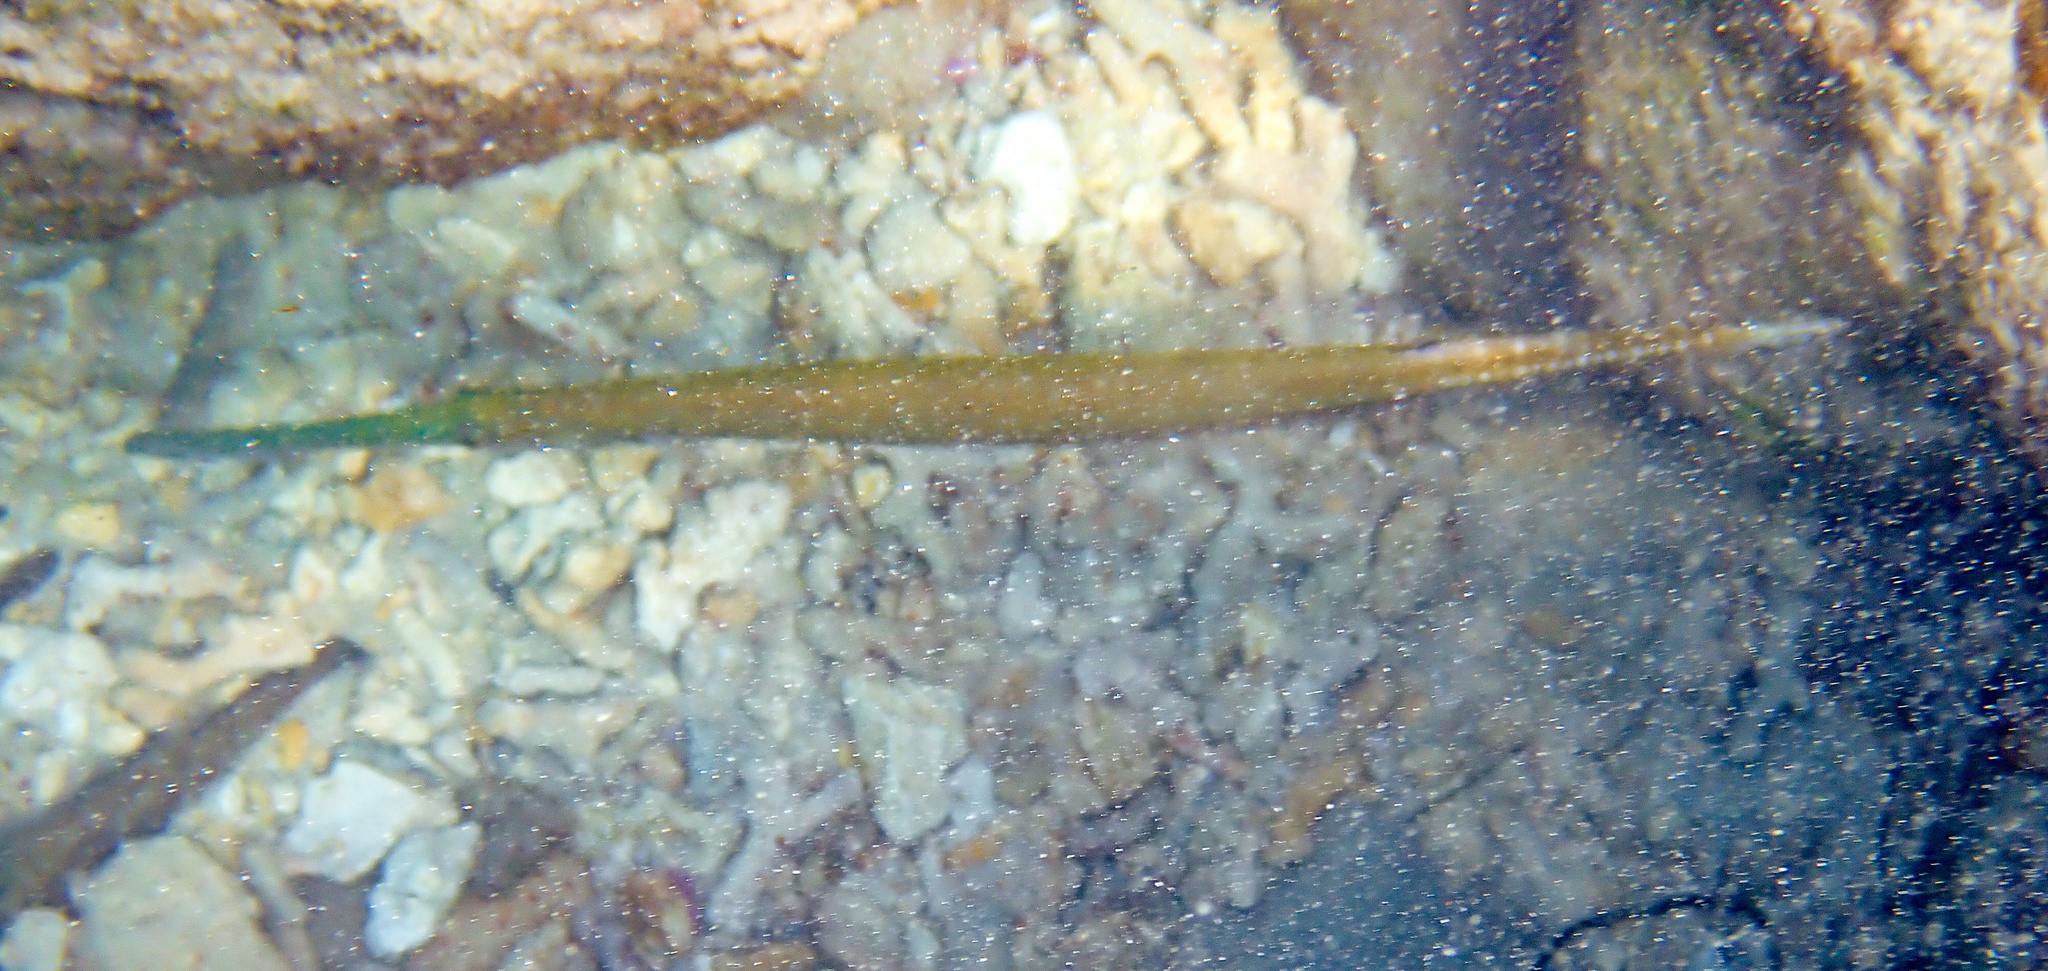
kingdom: Animalia
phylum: Chordata
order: Syngnathiformes
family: Aulostomidae
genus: Aulostomus
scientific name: Aulostomus maculatus
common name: West atlantic trumpetfish
